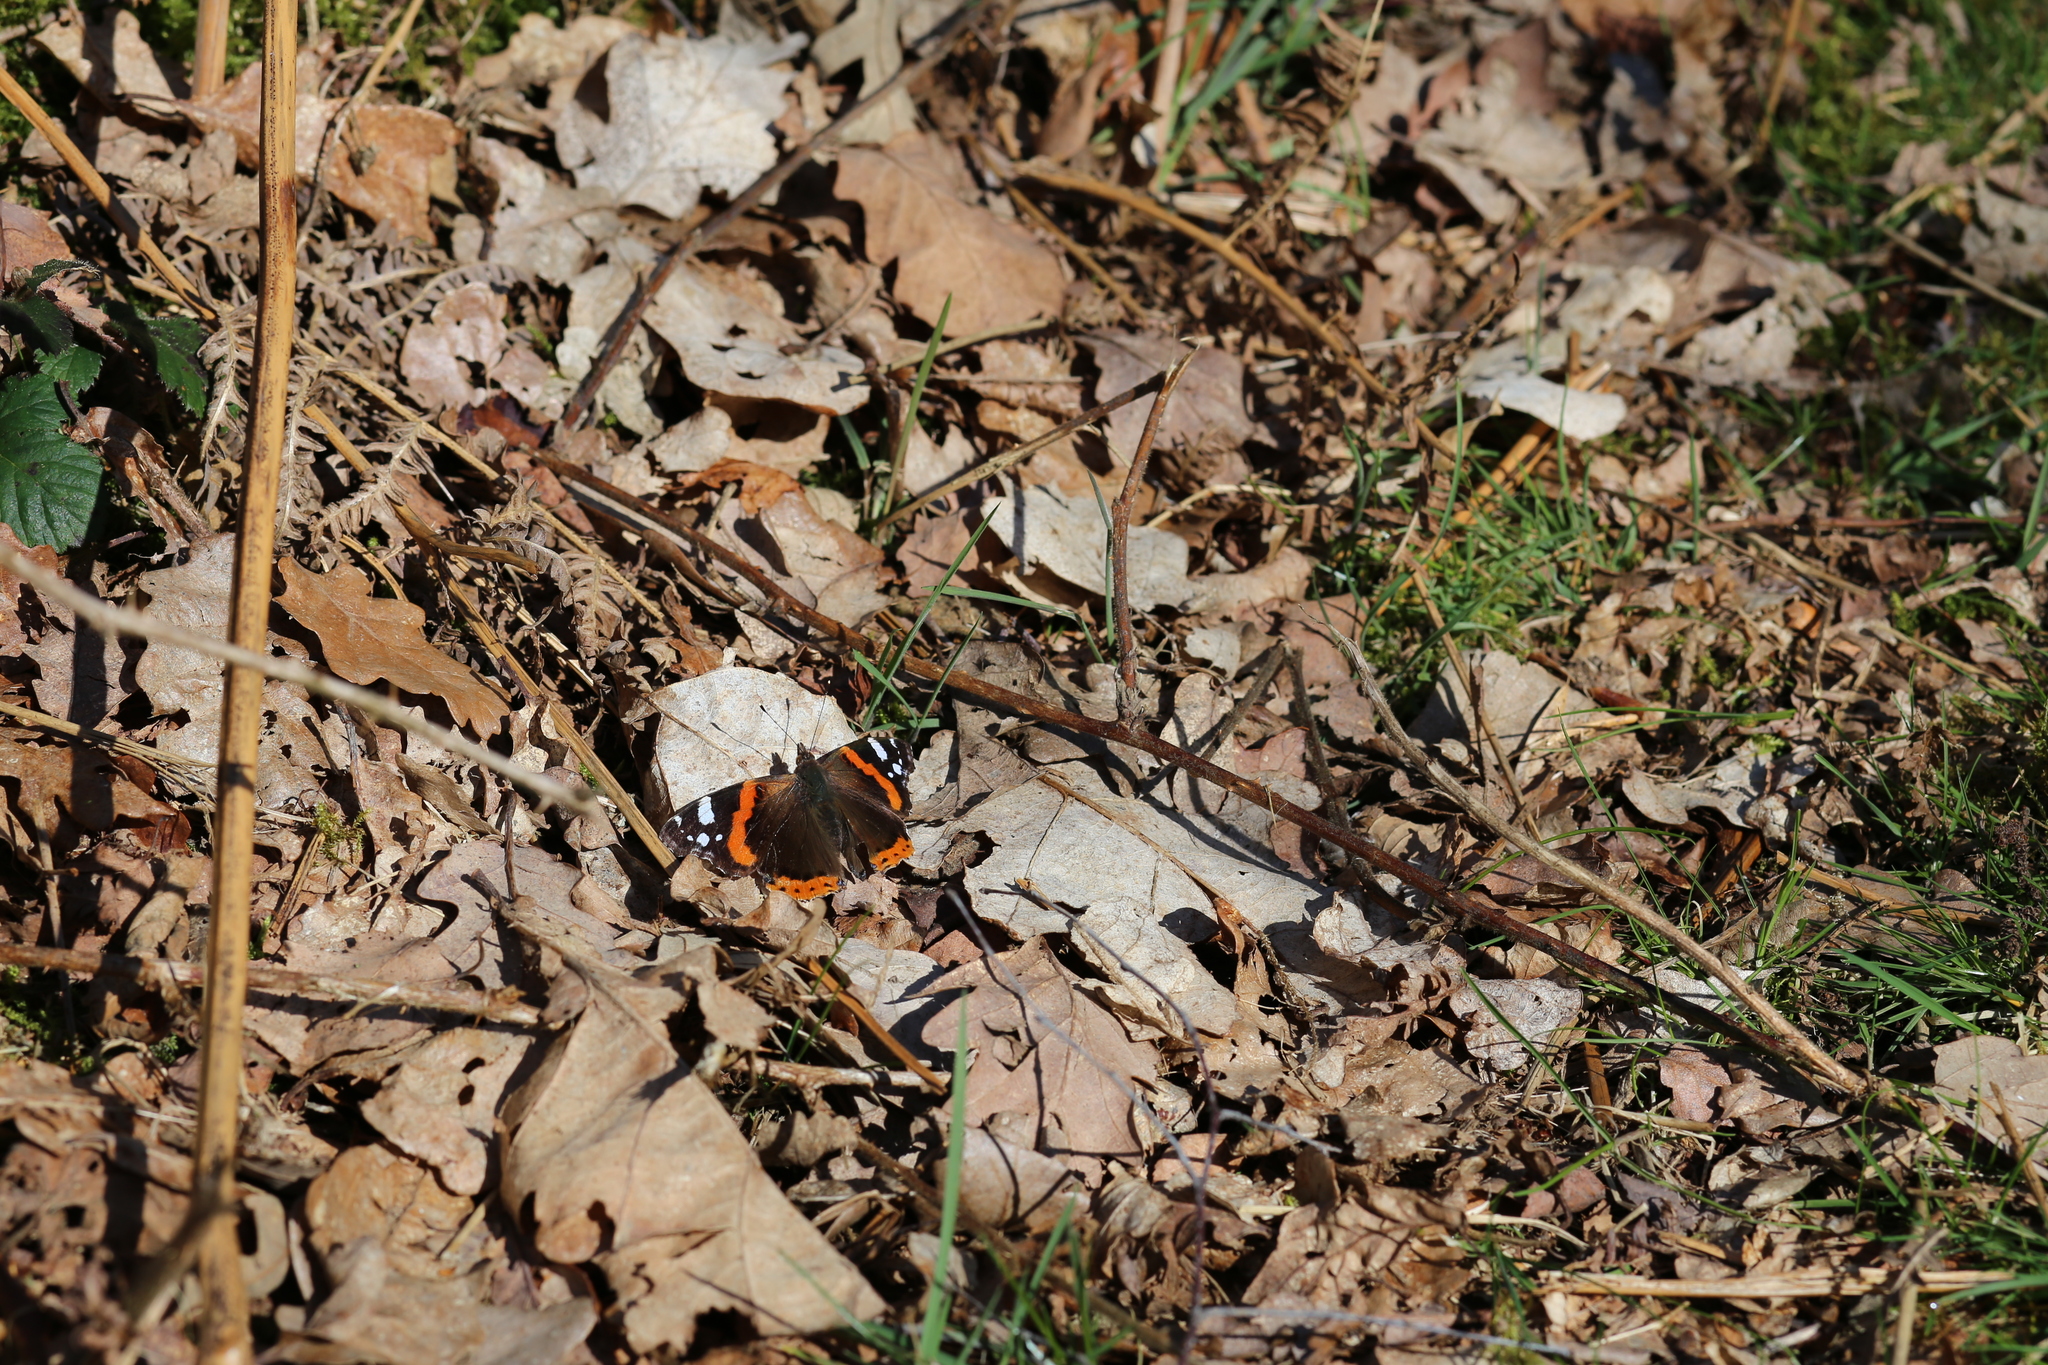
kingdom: Animalia
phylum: Arthropoda
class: Insecta
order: Lepidoptera
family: Nymphalidae
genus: Vanessa
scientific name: Vanessa atalanta
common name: Red admiral
